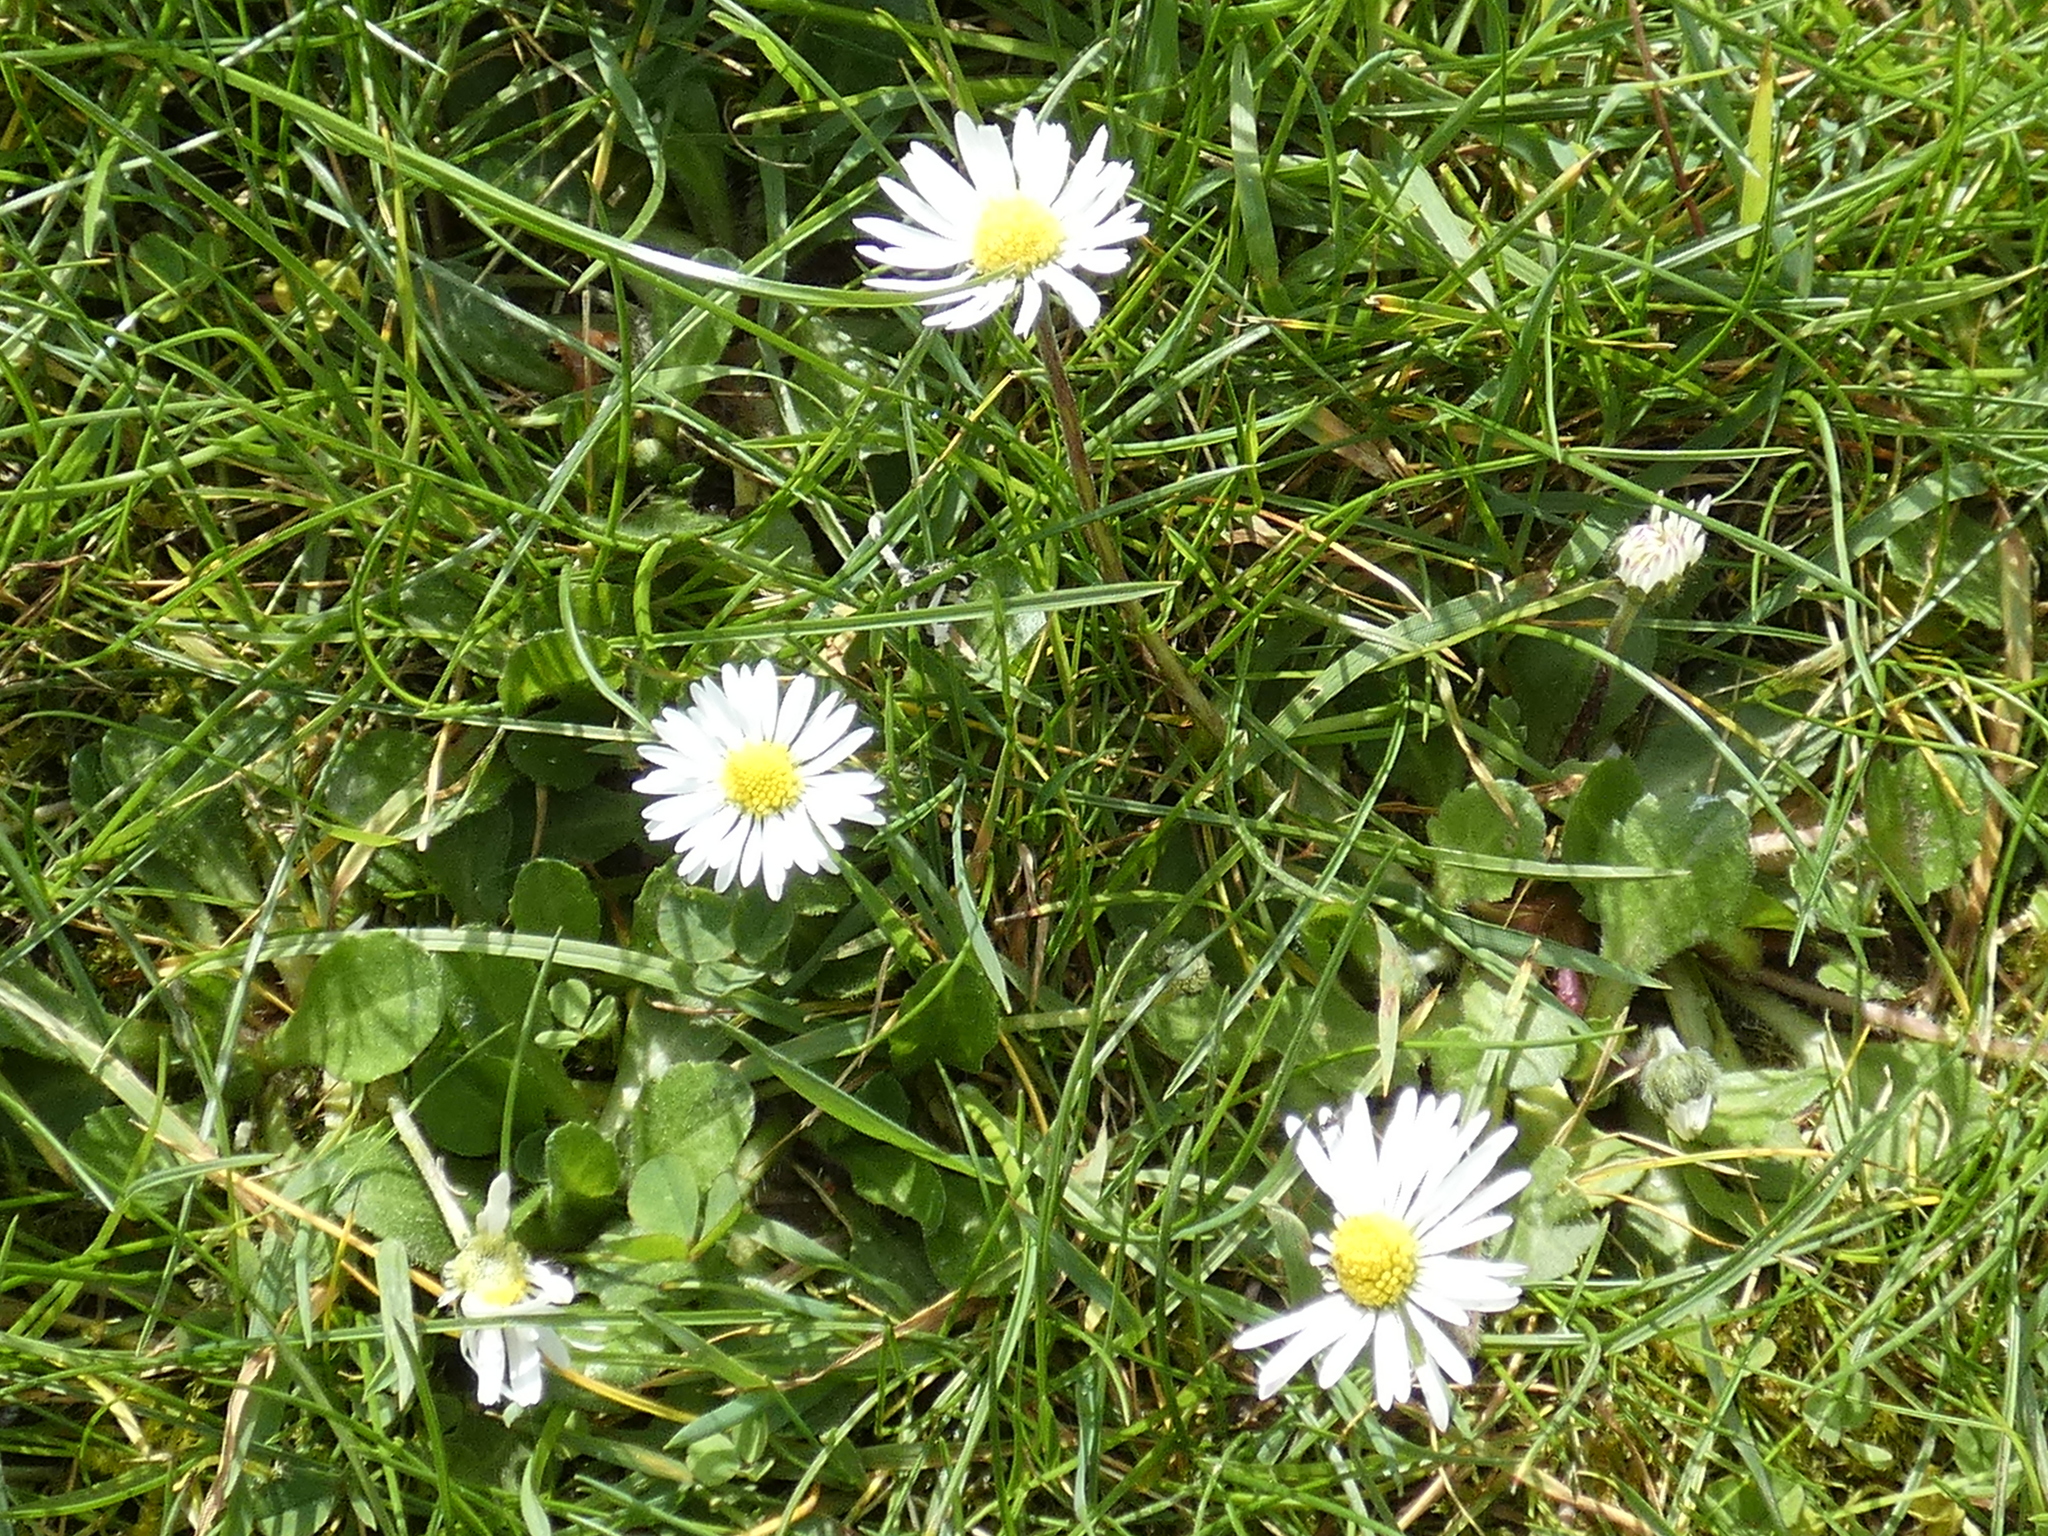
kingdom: Plantae
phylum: Tracheophyta
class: Magnoliopsida
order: Asterales
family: Asteraceae
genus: Bellis
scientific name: Bellis perennis
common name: Lawndaisy
